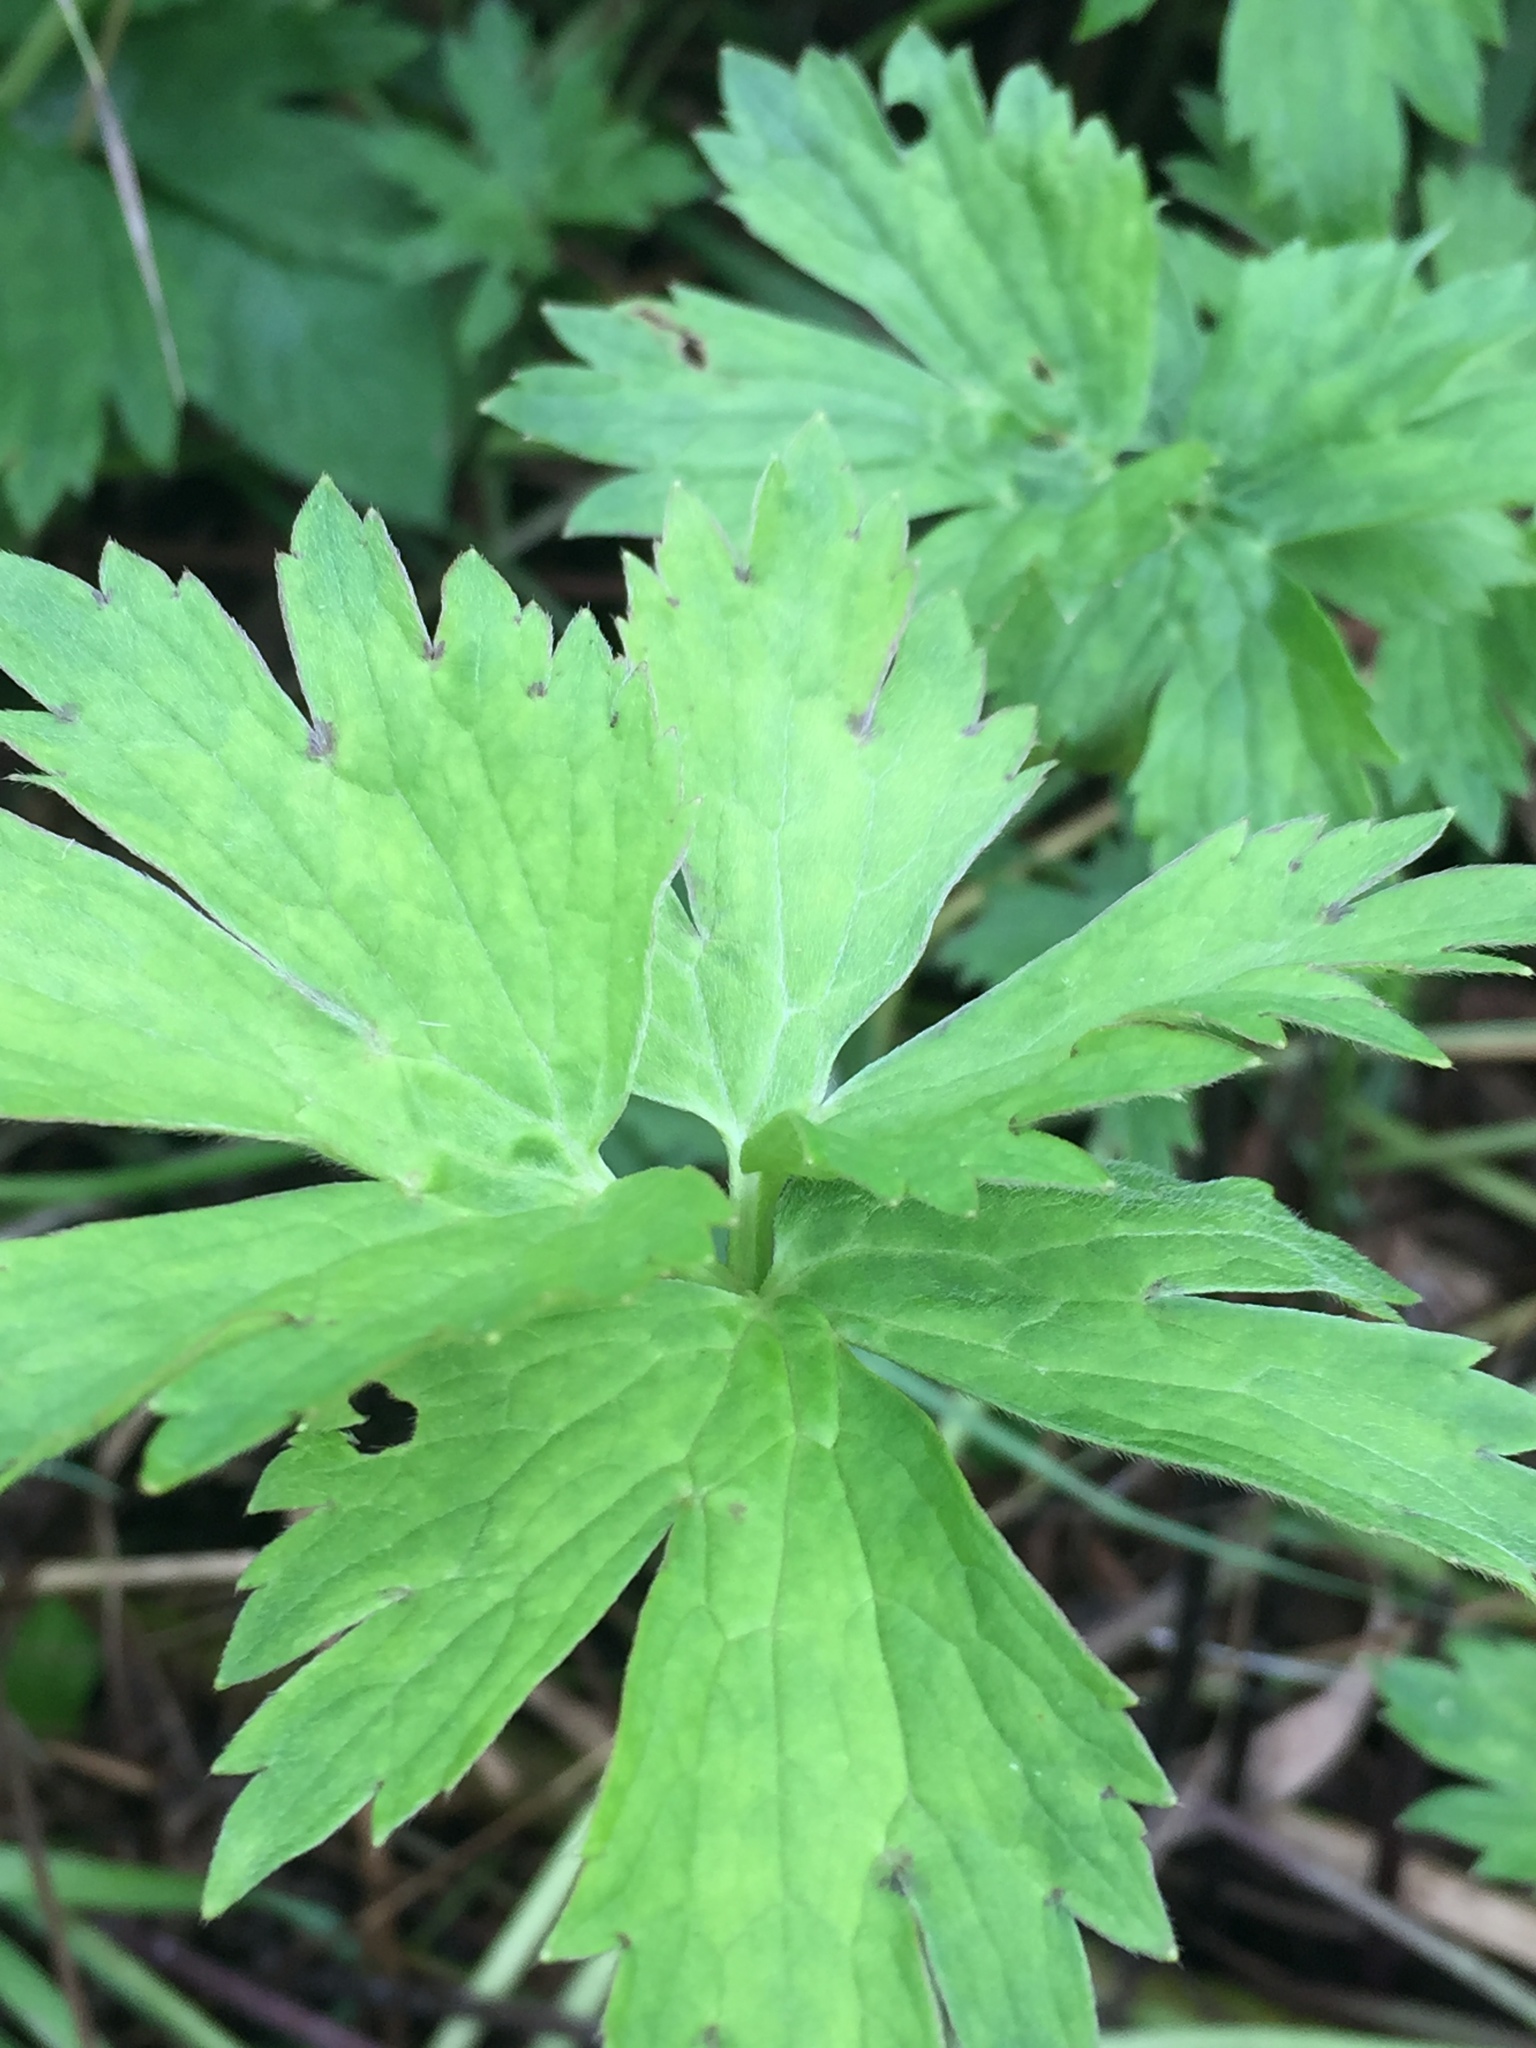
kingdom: Plantae
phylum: Tracheophyta
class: Magnoliopsida
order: Ranunculales
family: Ranunculaceae
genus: Ranunculus
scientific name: Ranunculus repens
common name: Creeping buttercup
